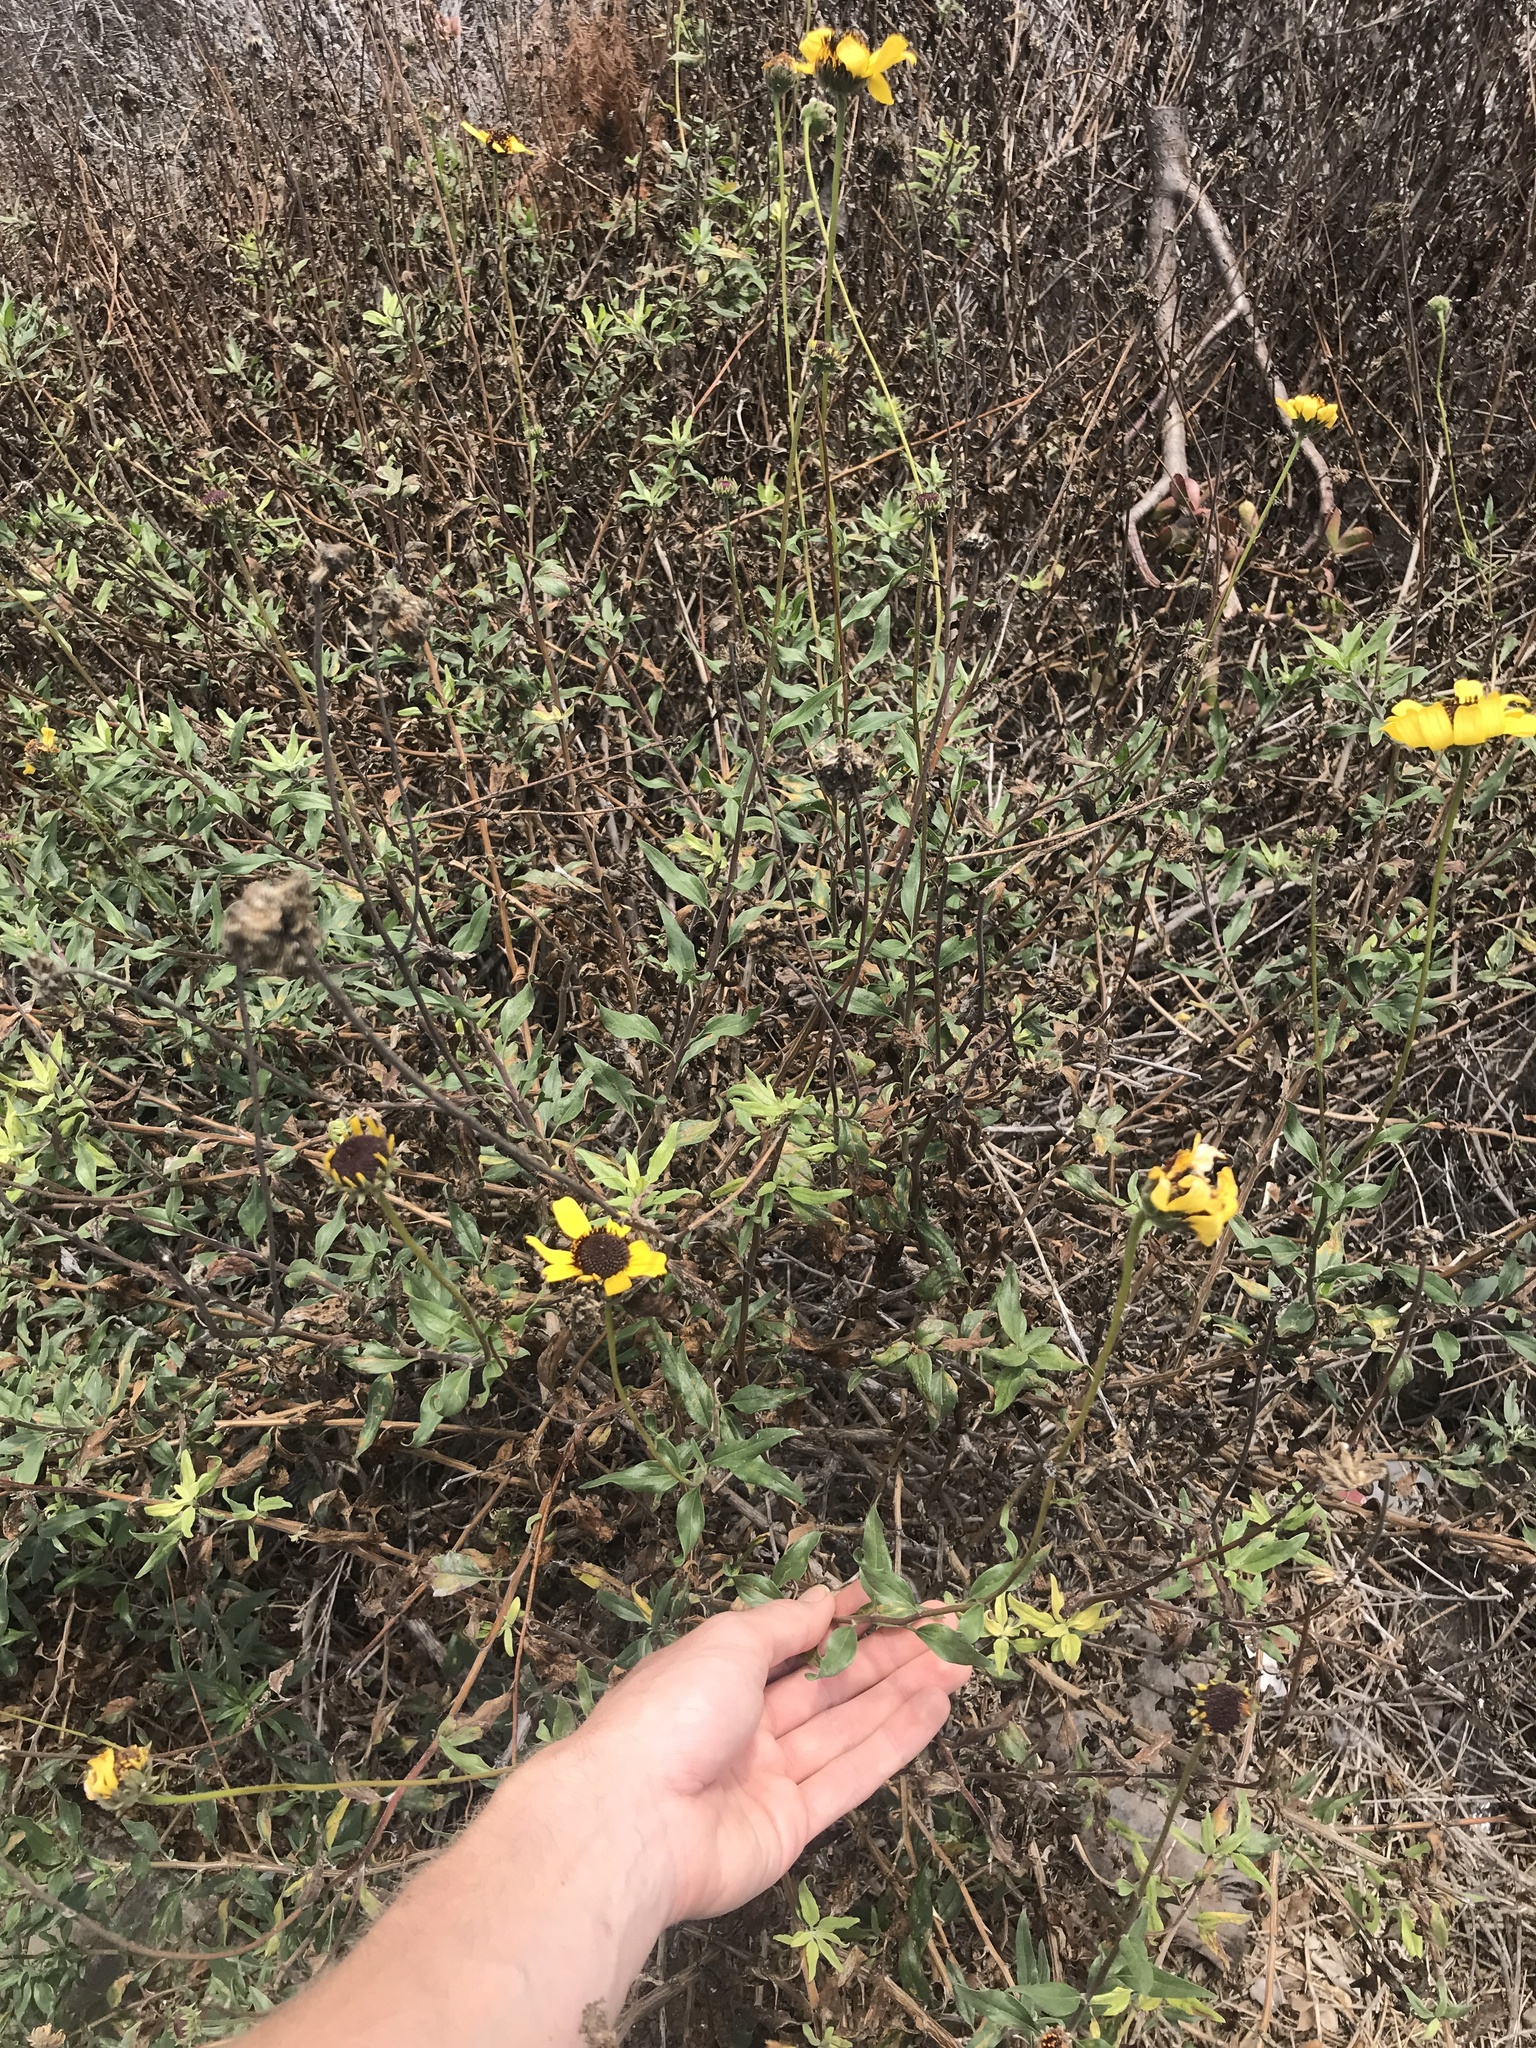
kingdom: Plantae
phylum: Tracheophyta
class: Magnoliopsida
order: Asterales
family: Asteraceae
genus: Encelia
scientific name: Encelia californica
